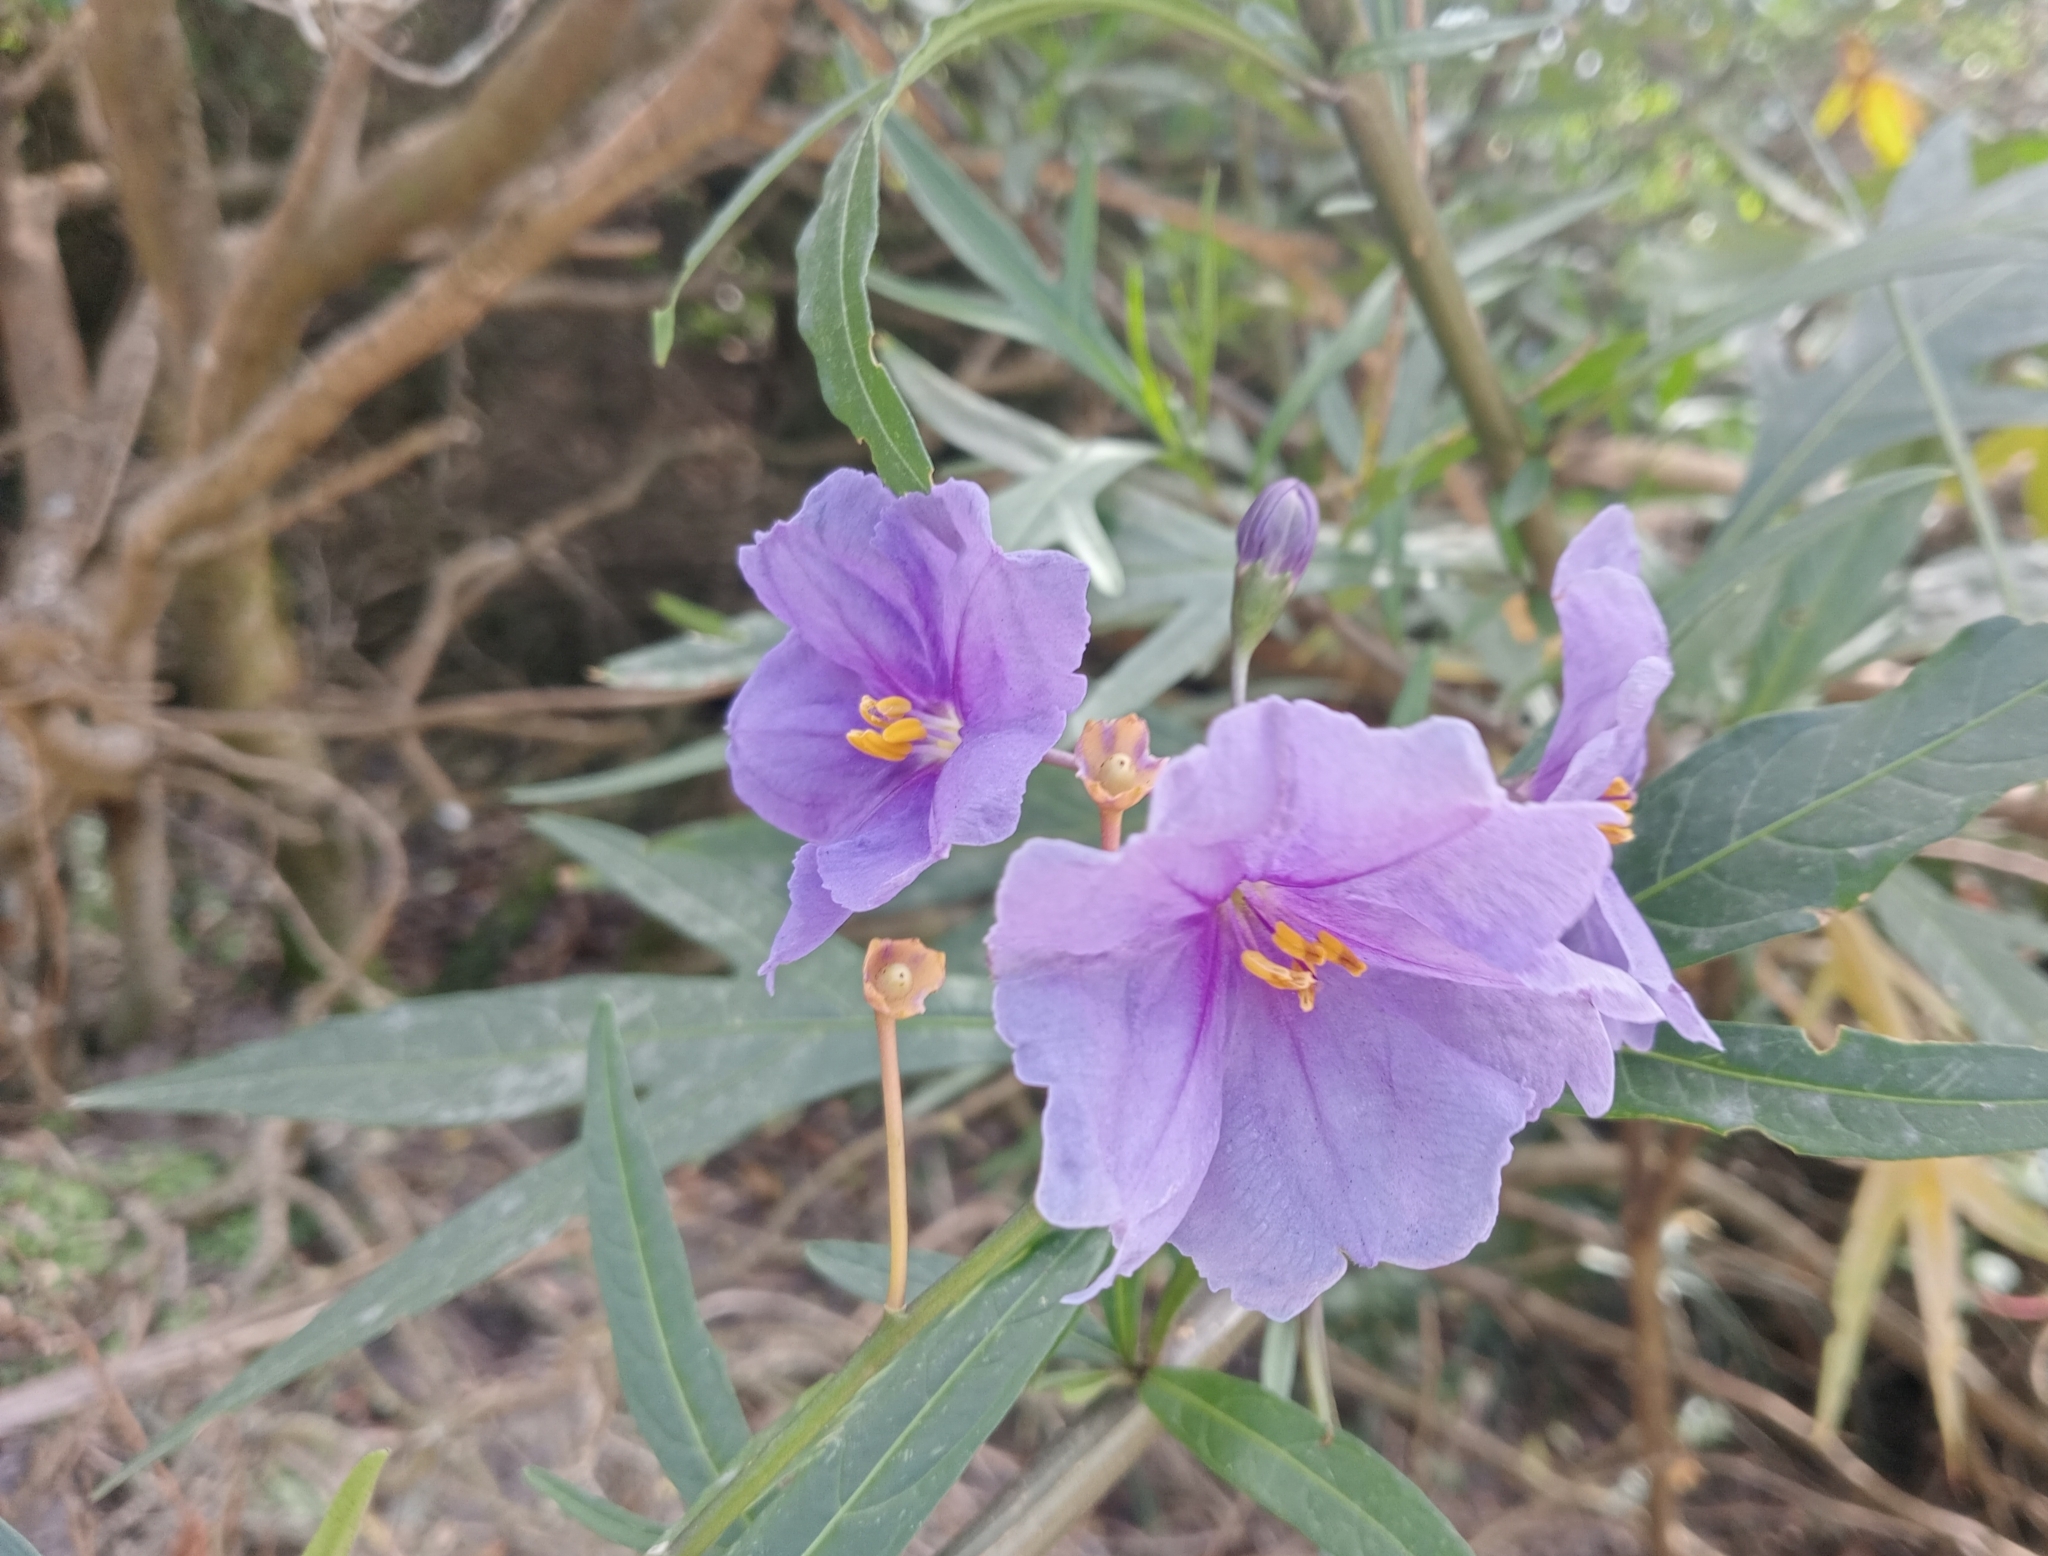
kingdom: Plantae
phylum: Tracheophyta
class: Magnoliopsida
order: Solanales
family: Solanaceae
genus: Solanum
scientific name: Solanum laciniatum
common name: Kangaroo-apple
